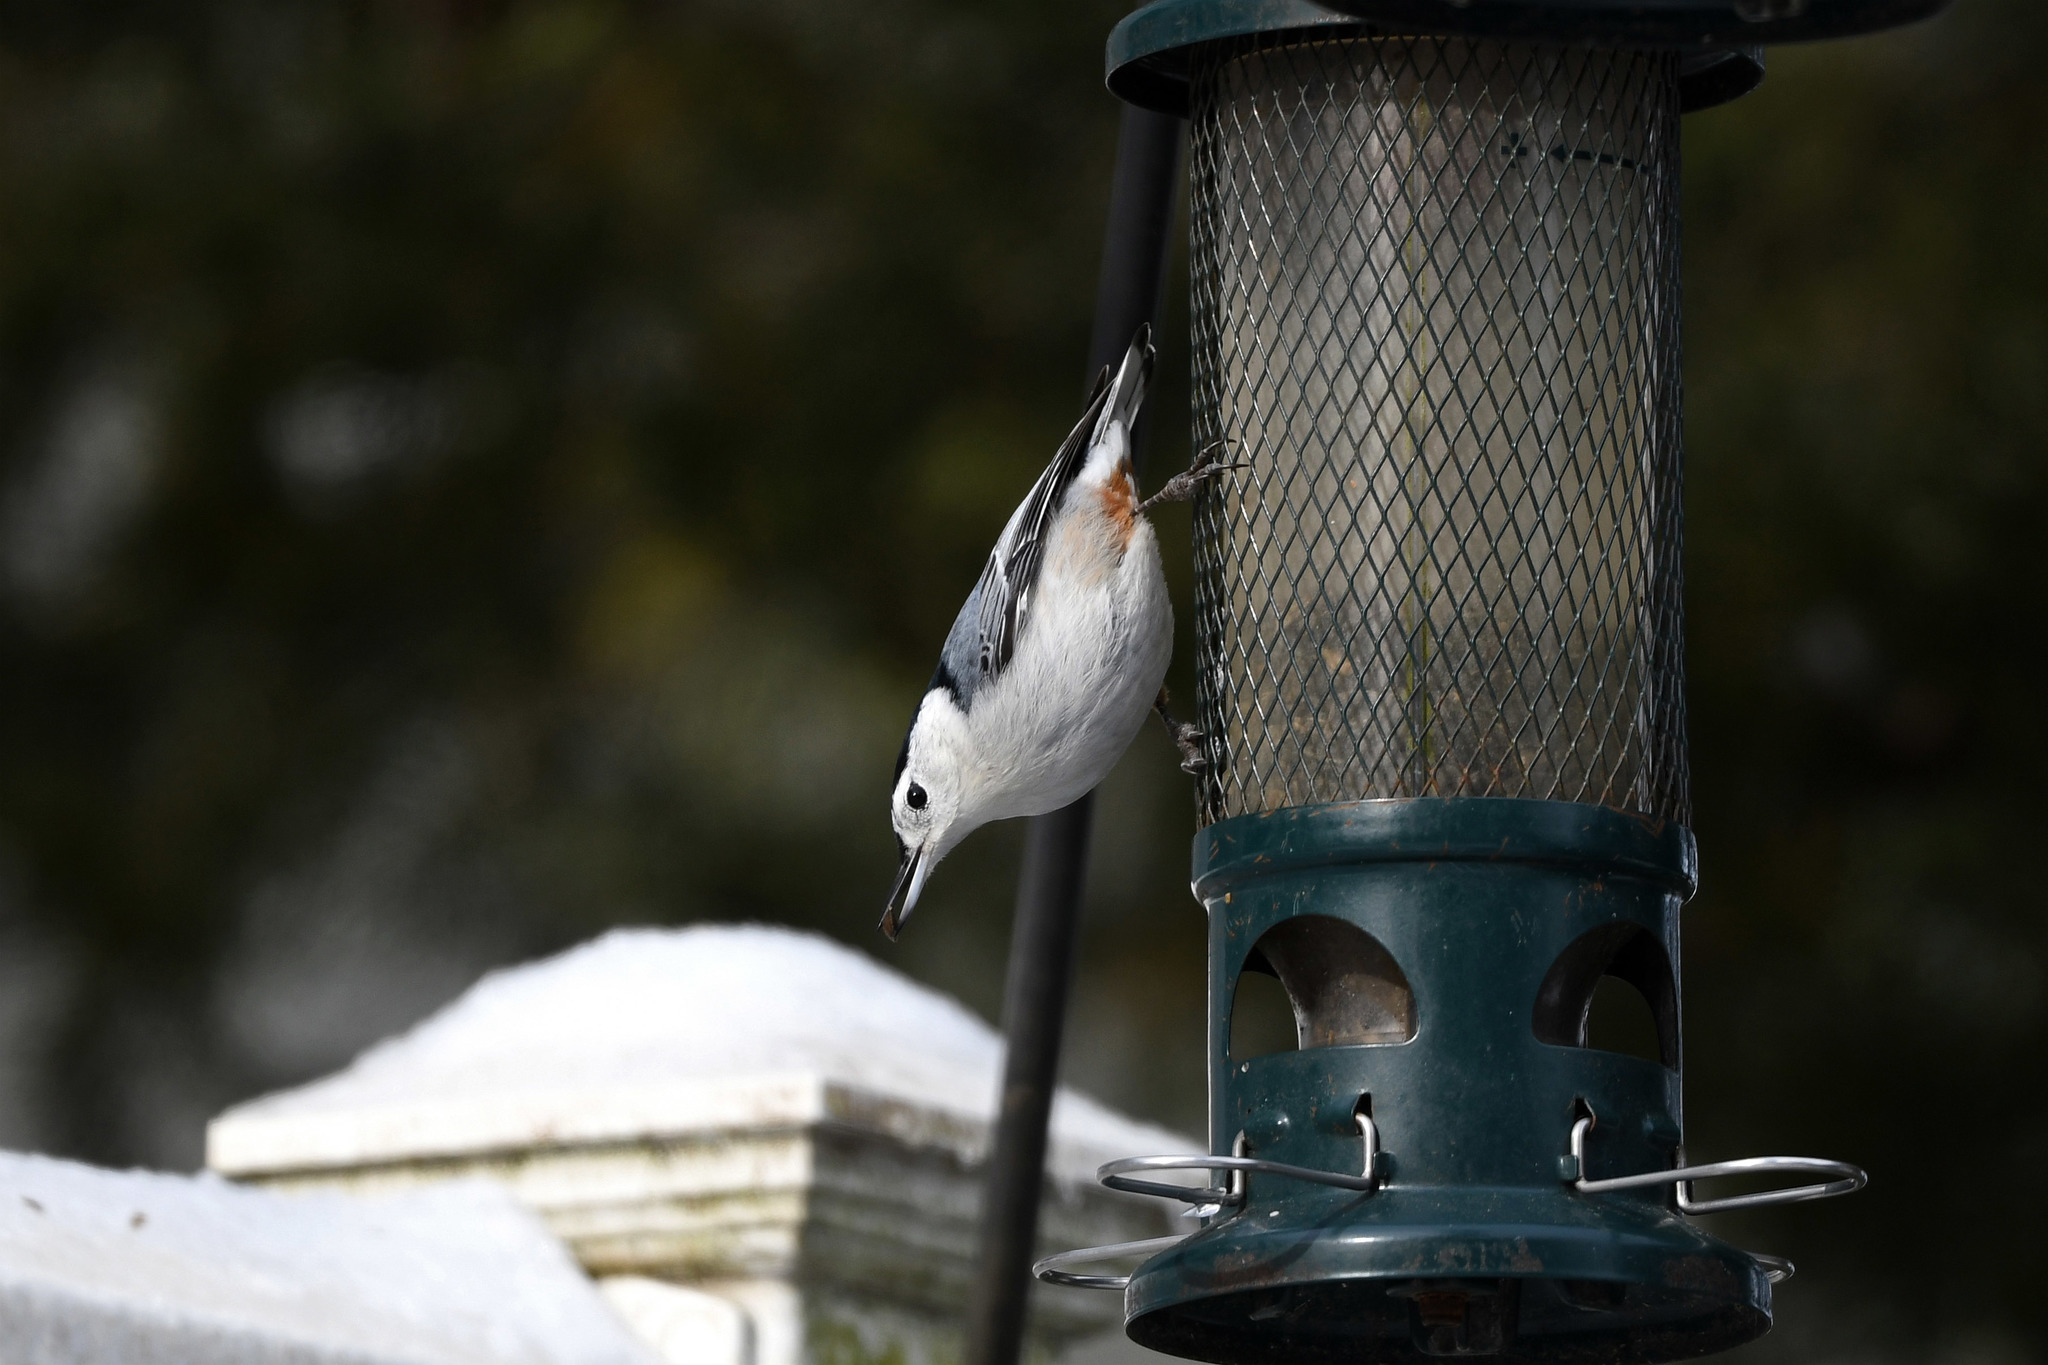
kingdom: Animalia
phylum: Chordata
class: Aves
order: Passeriformes
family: Sittidae
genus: Sitta
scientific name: Sitta carolinensis
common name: White-breasted nuthatch
